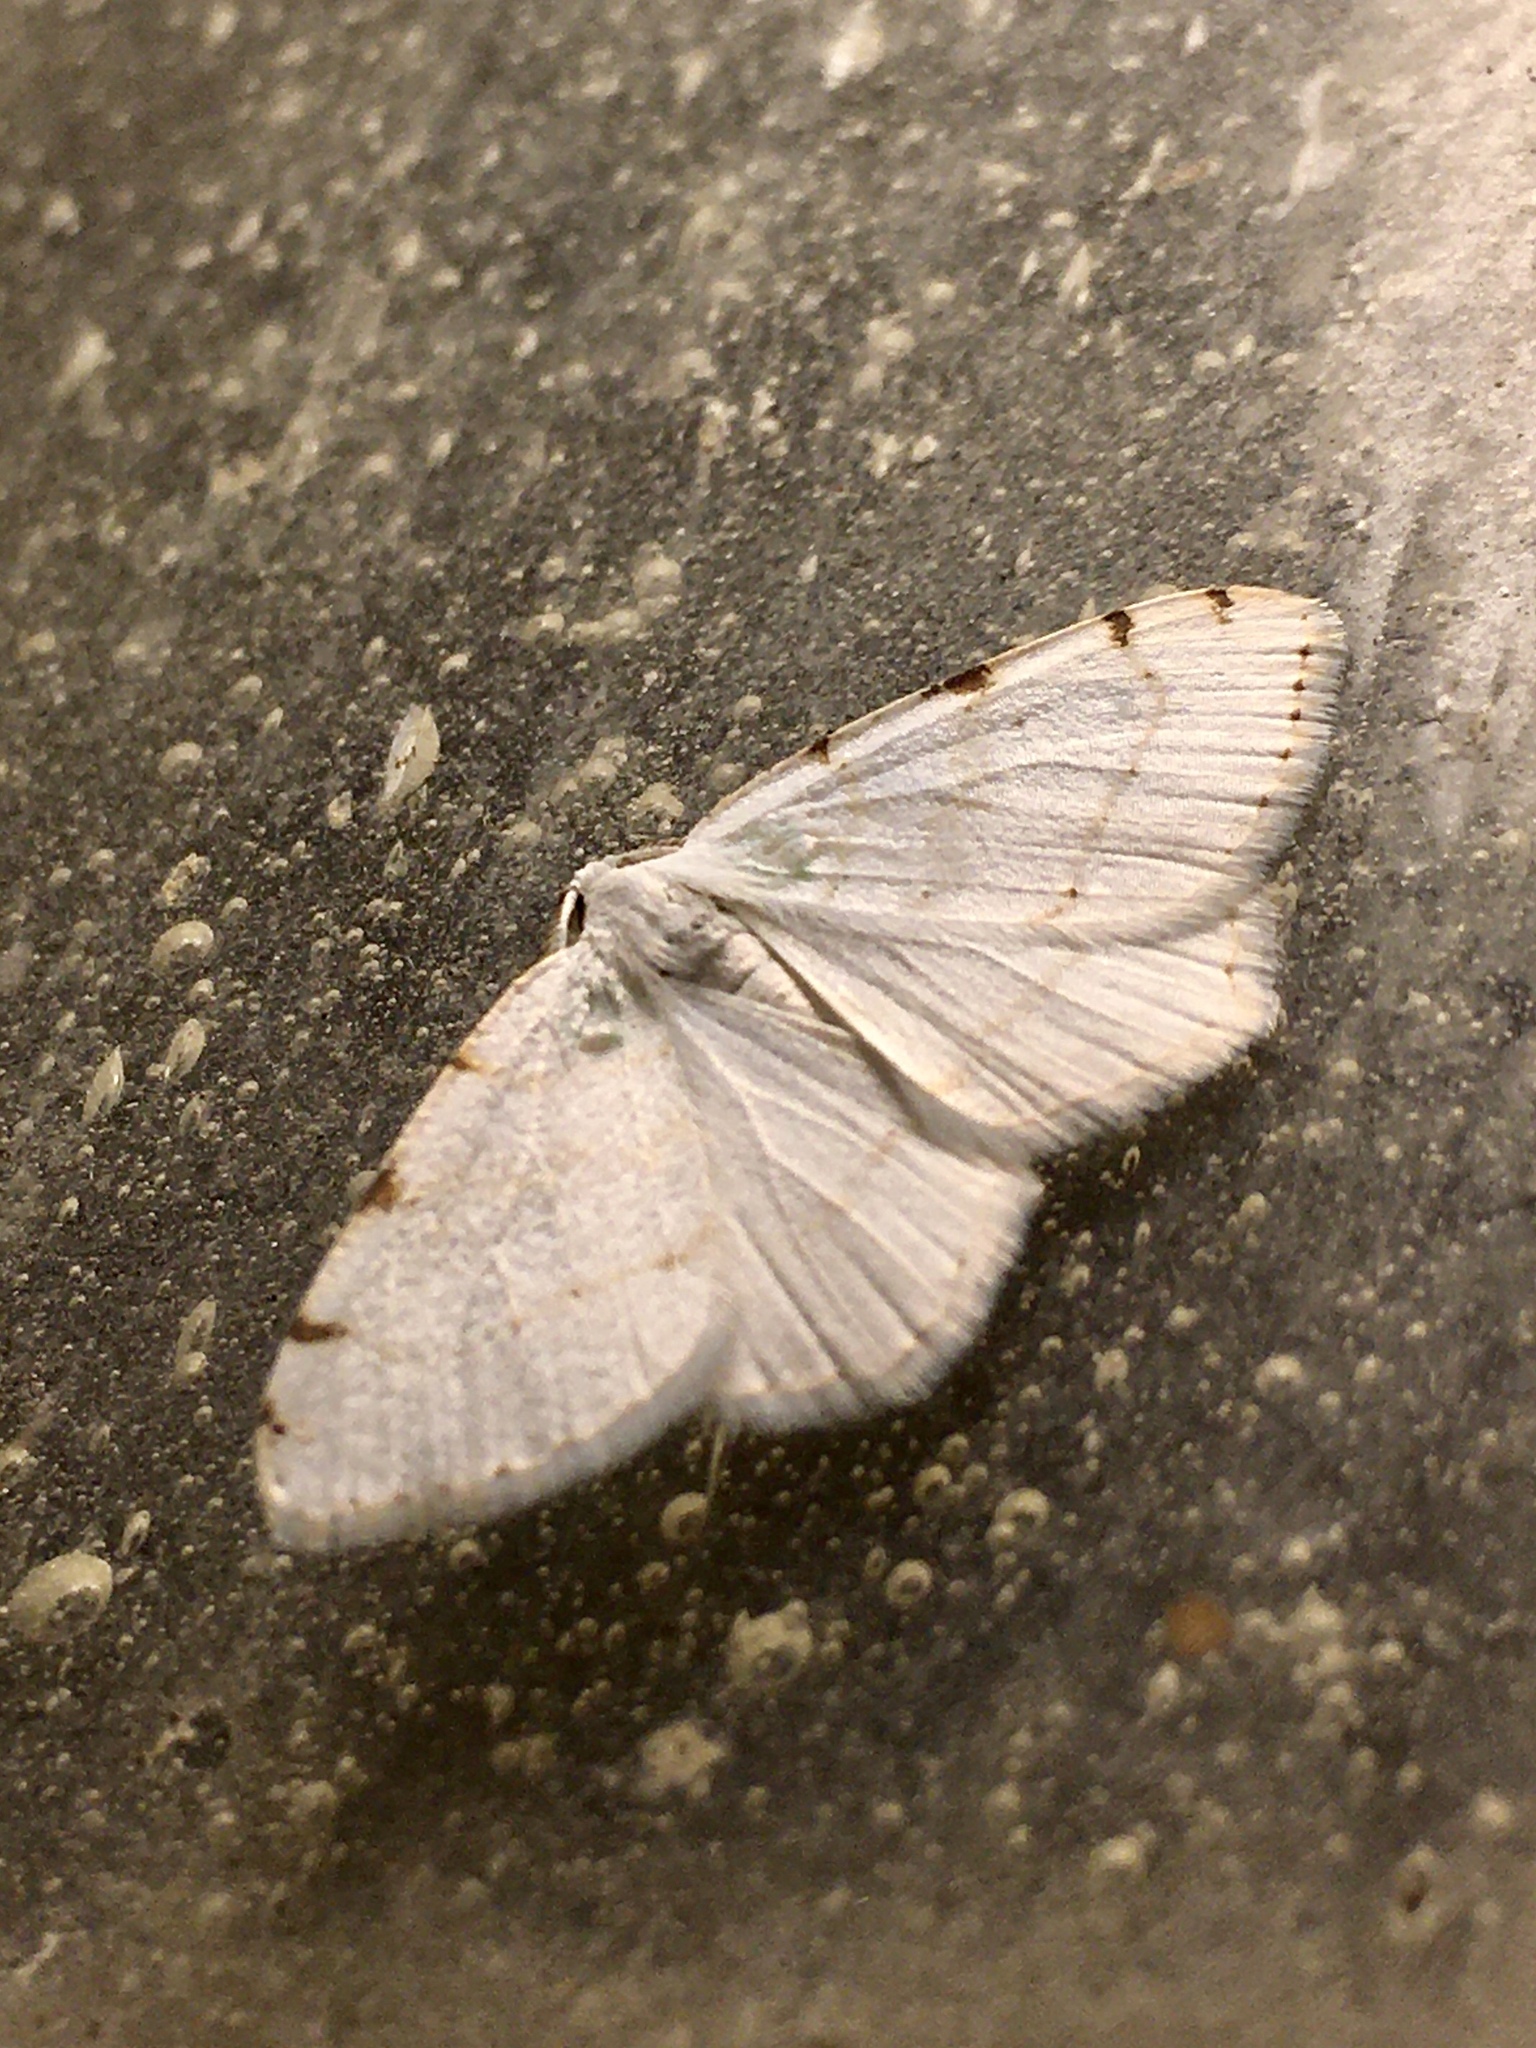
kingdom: Animalia
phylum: Arthropoda
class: Insecta
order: Lepidoptera
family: Geometridae
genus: Macaria
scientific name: Macaria pustularia
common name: Lesser maple spanworm moth
